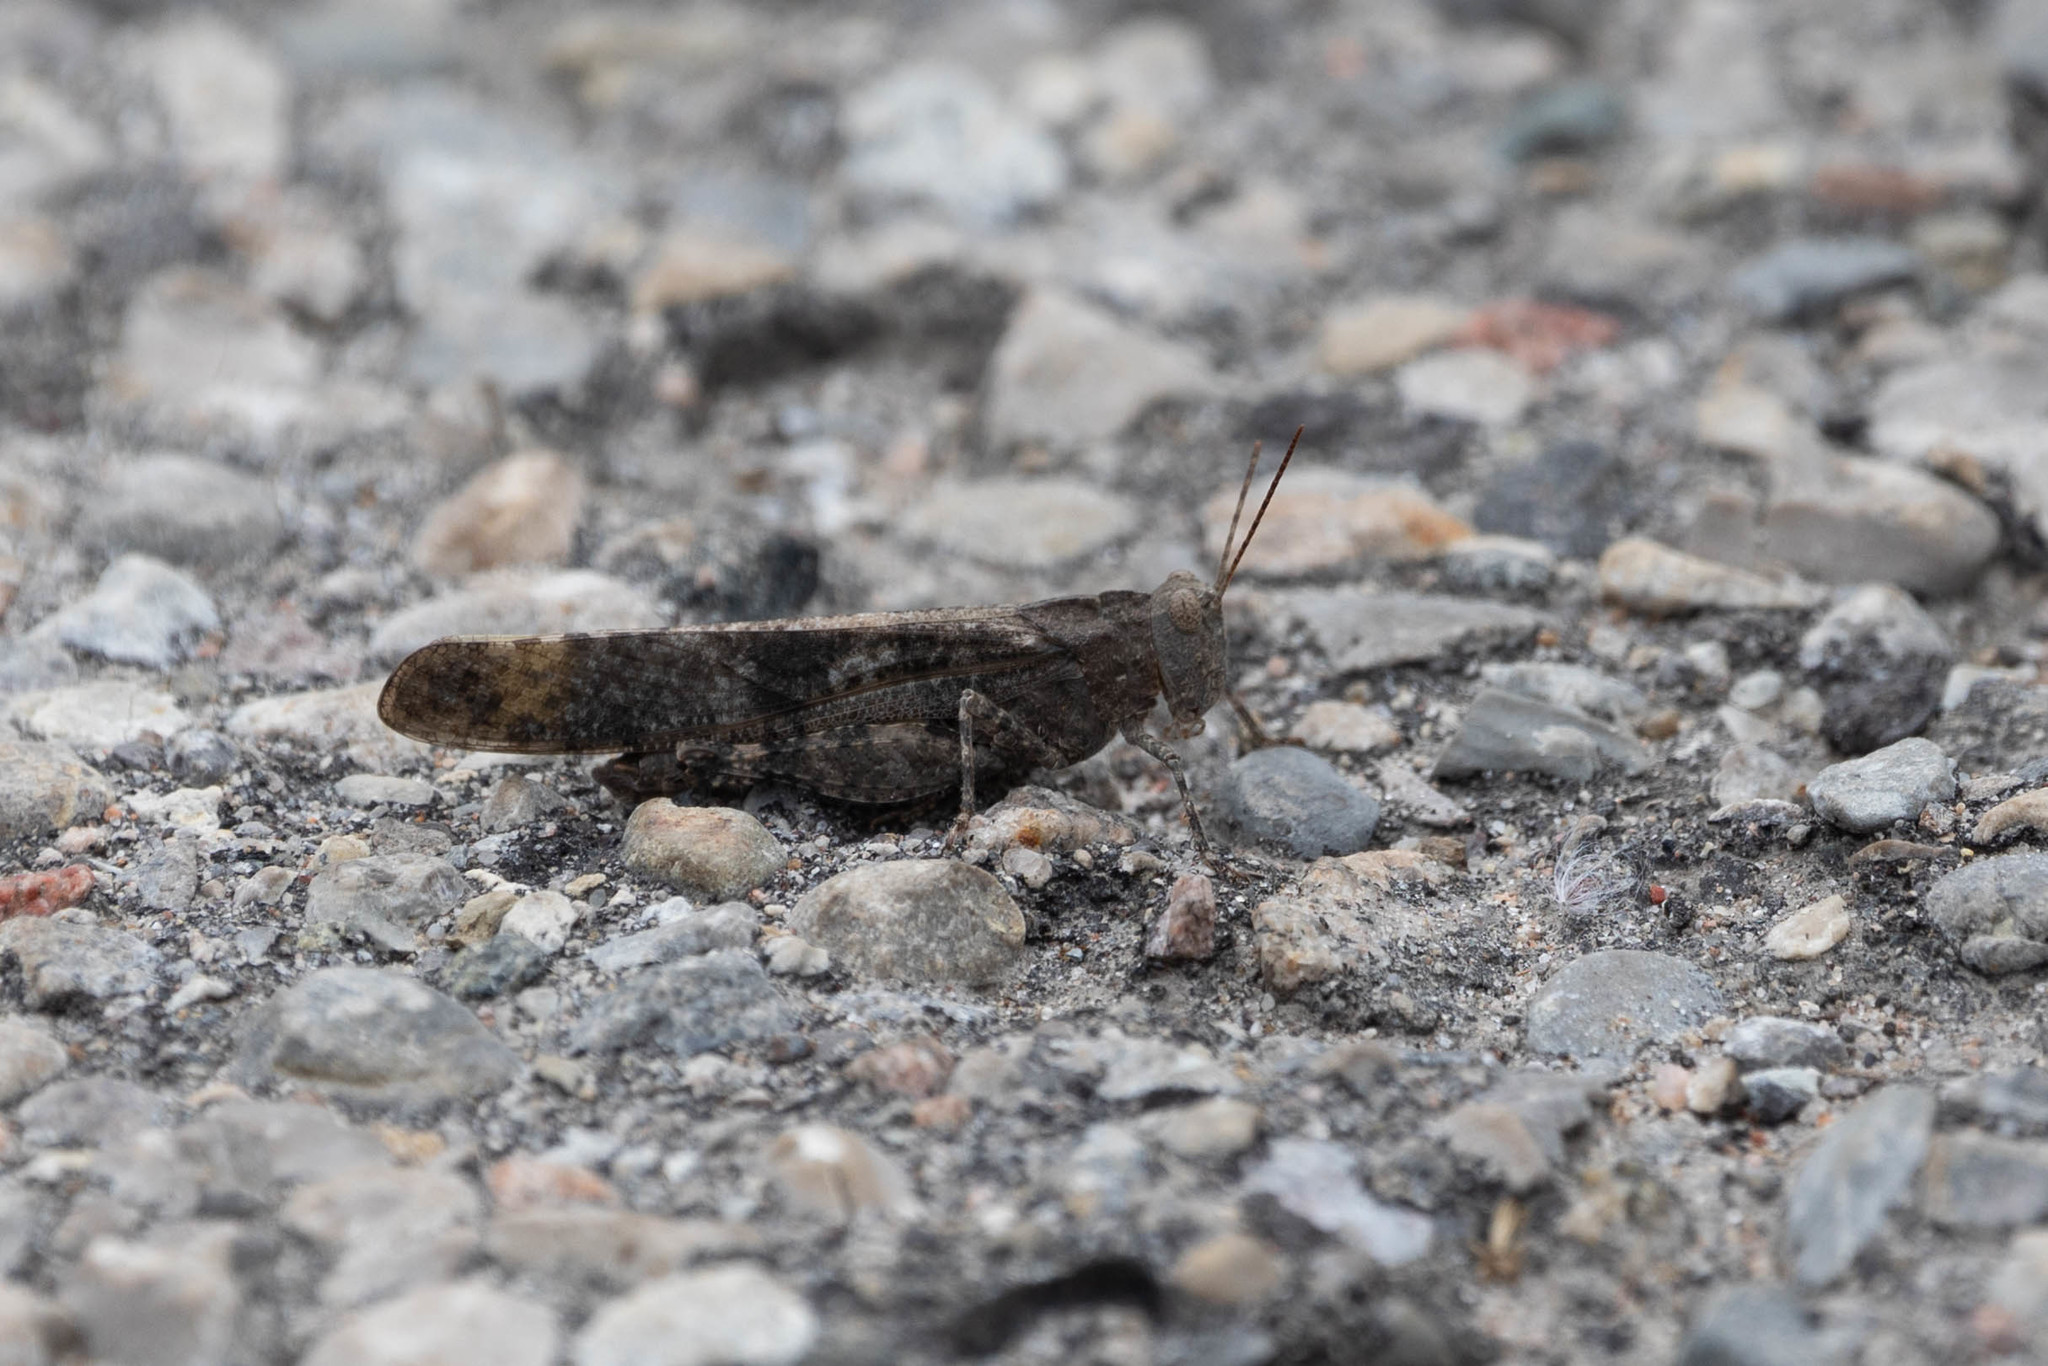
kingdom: Animalia
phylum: Arthropoda
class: Insecta
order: Orthoptera
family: Acrididae
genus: Dissosteira
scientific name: Dissosteira carolina
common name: Carolina grasshopper
